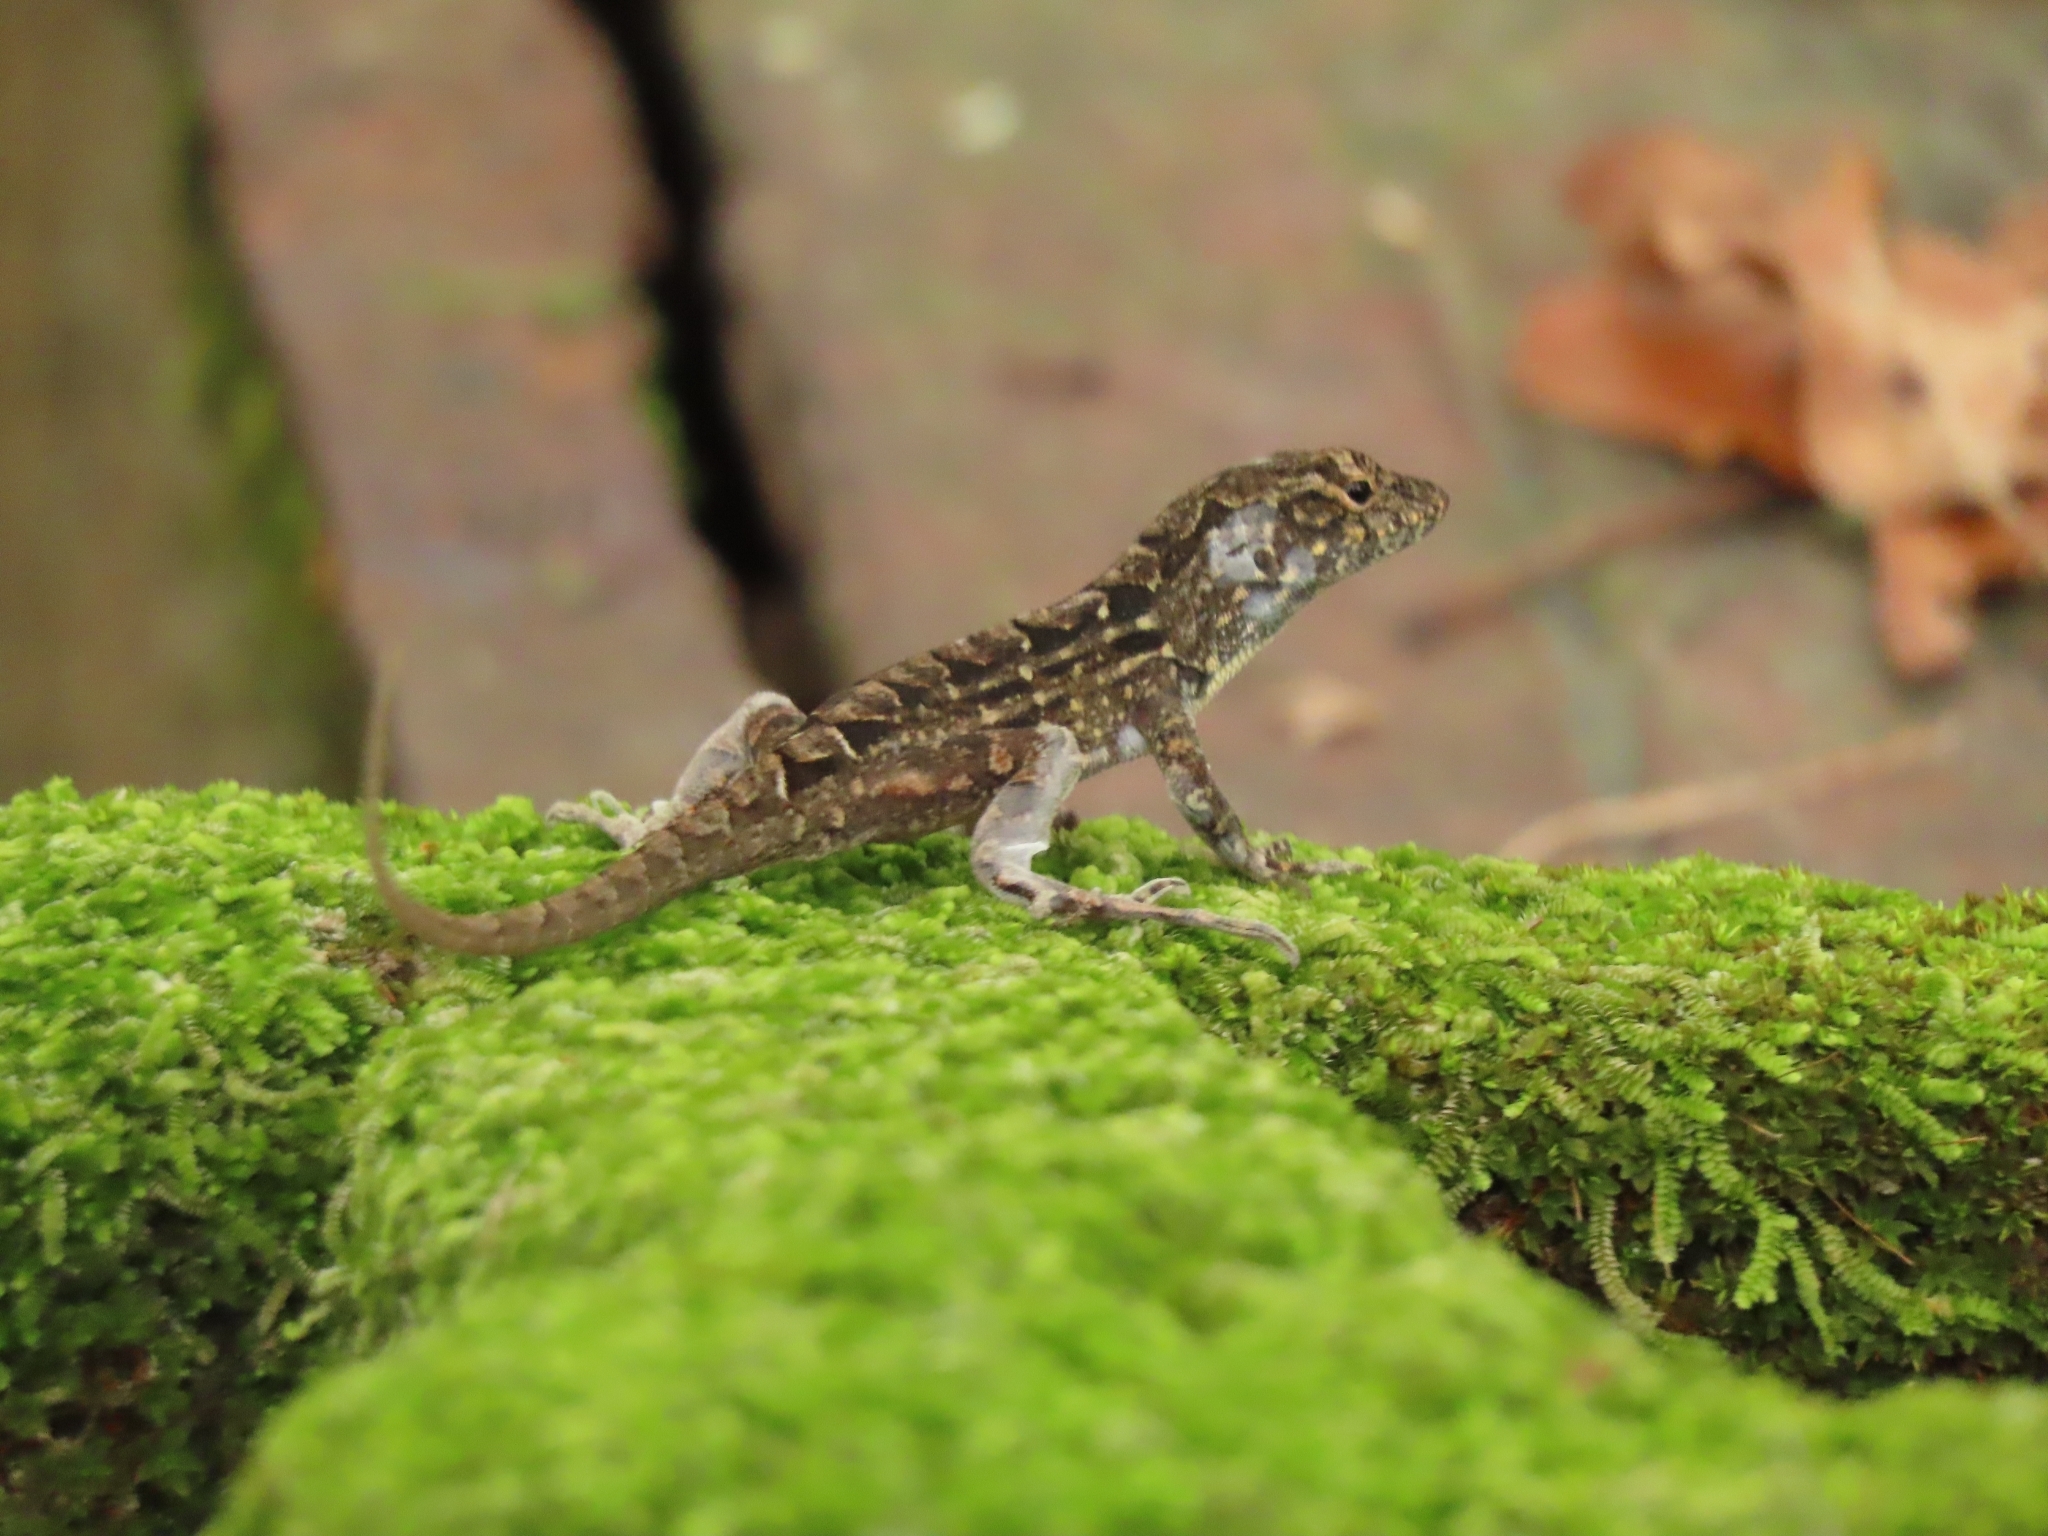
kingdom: Animalia
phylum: Chordata
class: Squamata
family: Dactyloidae
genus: Anolis
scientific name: Anolis sagrei
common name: Brown anole
